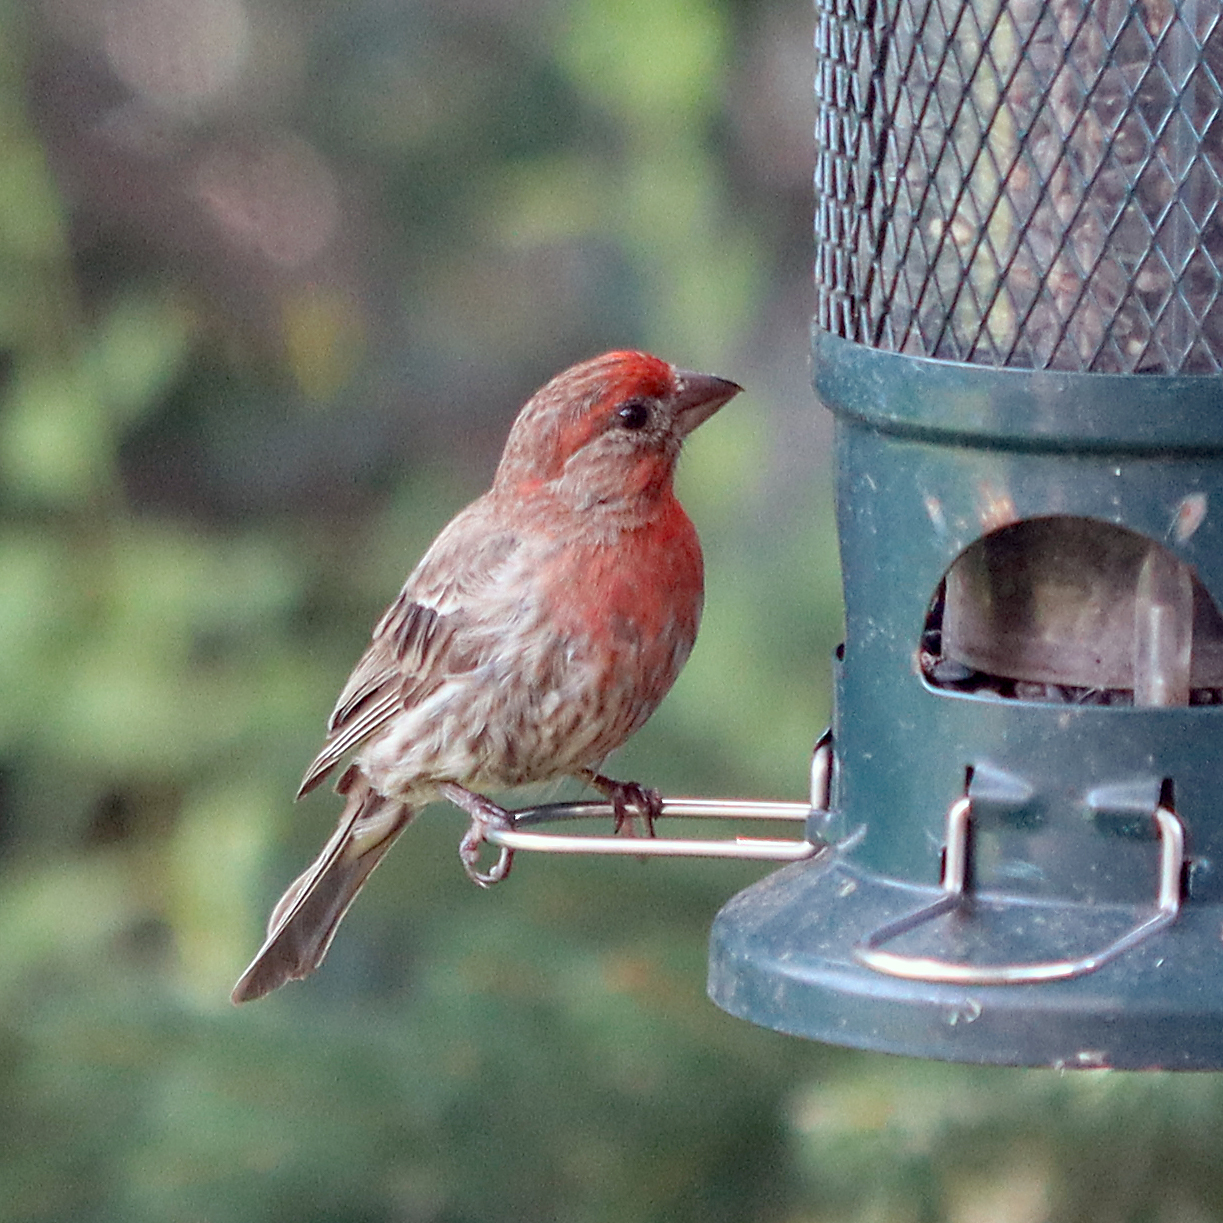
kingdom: Animalia
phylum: Chordata
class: Aves
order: Passeriformes
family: Fringillidae
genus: Haemorhous
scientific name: Haemorhous mexicanus
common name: House finch
